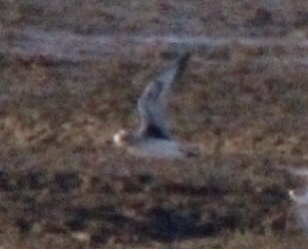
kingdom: Animalia
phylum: Chordata
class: Aves
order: Charadriiformes
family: Charadriidae
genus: Pluvialis
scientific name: Pluvialis squatarola
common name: Grey plover
